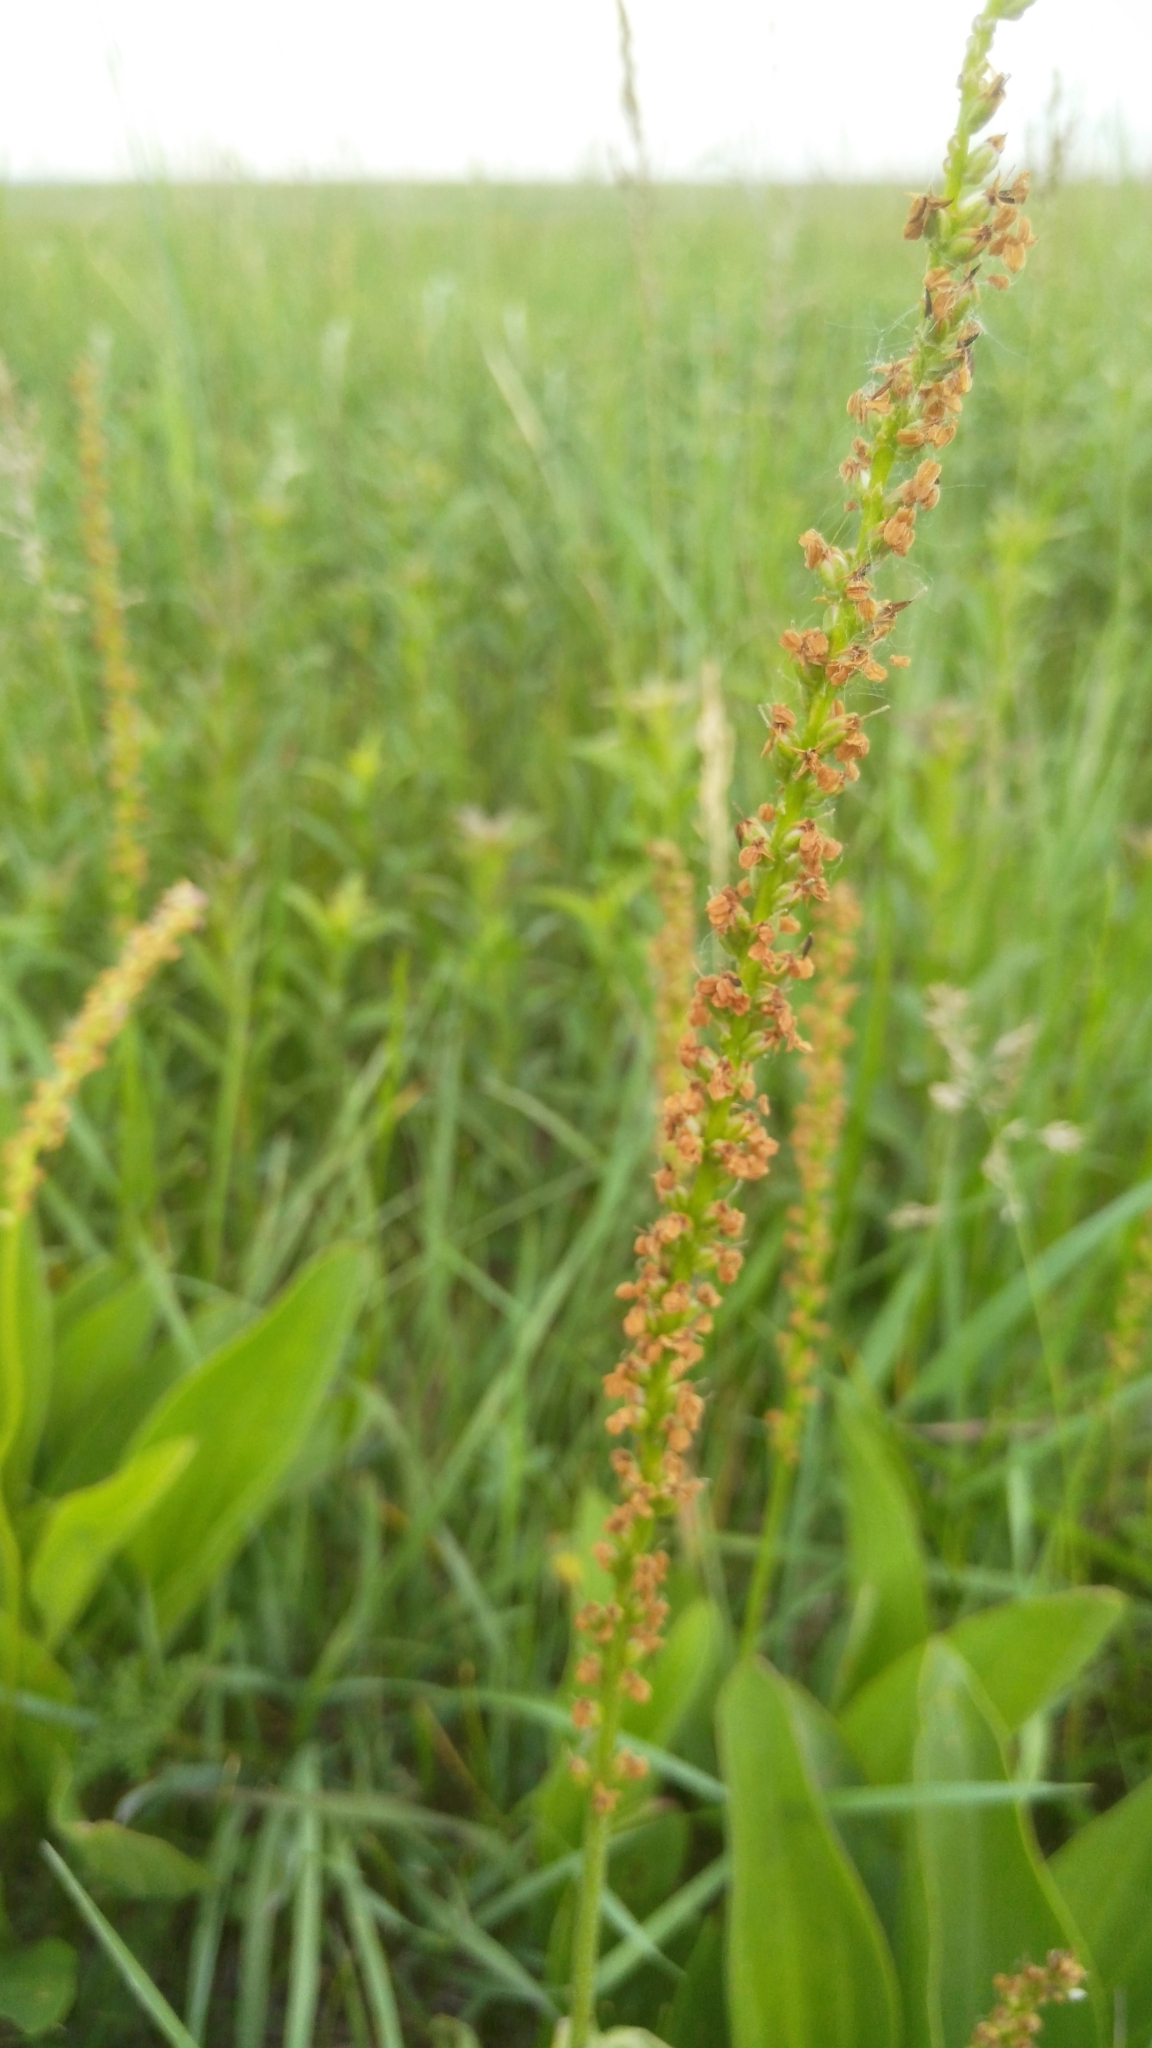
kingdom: Plantae
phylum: Tracheophyta
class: Magnoliopsida
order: Lamiales
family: Plantaginaceae
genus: Plantago
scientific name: Plantago major
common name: Common plantain
